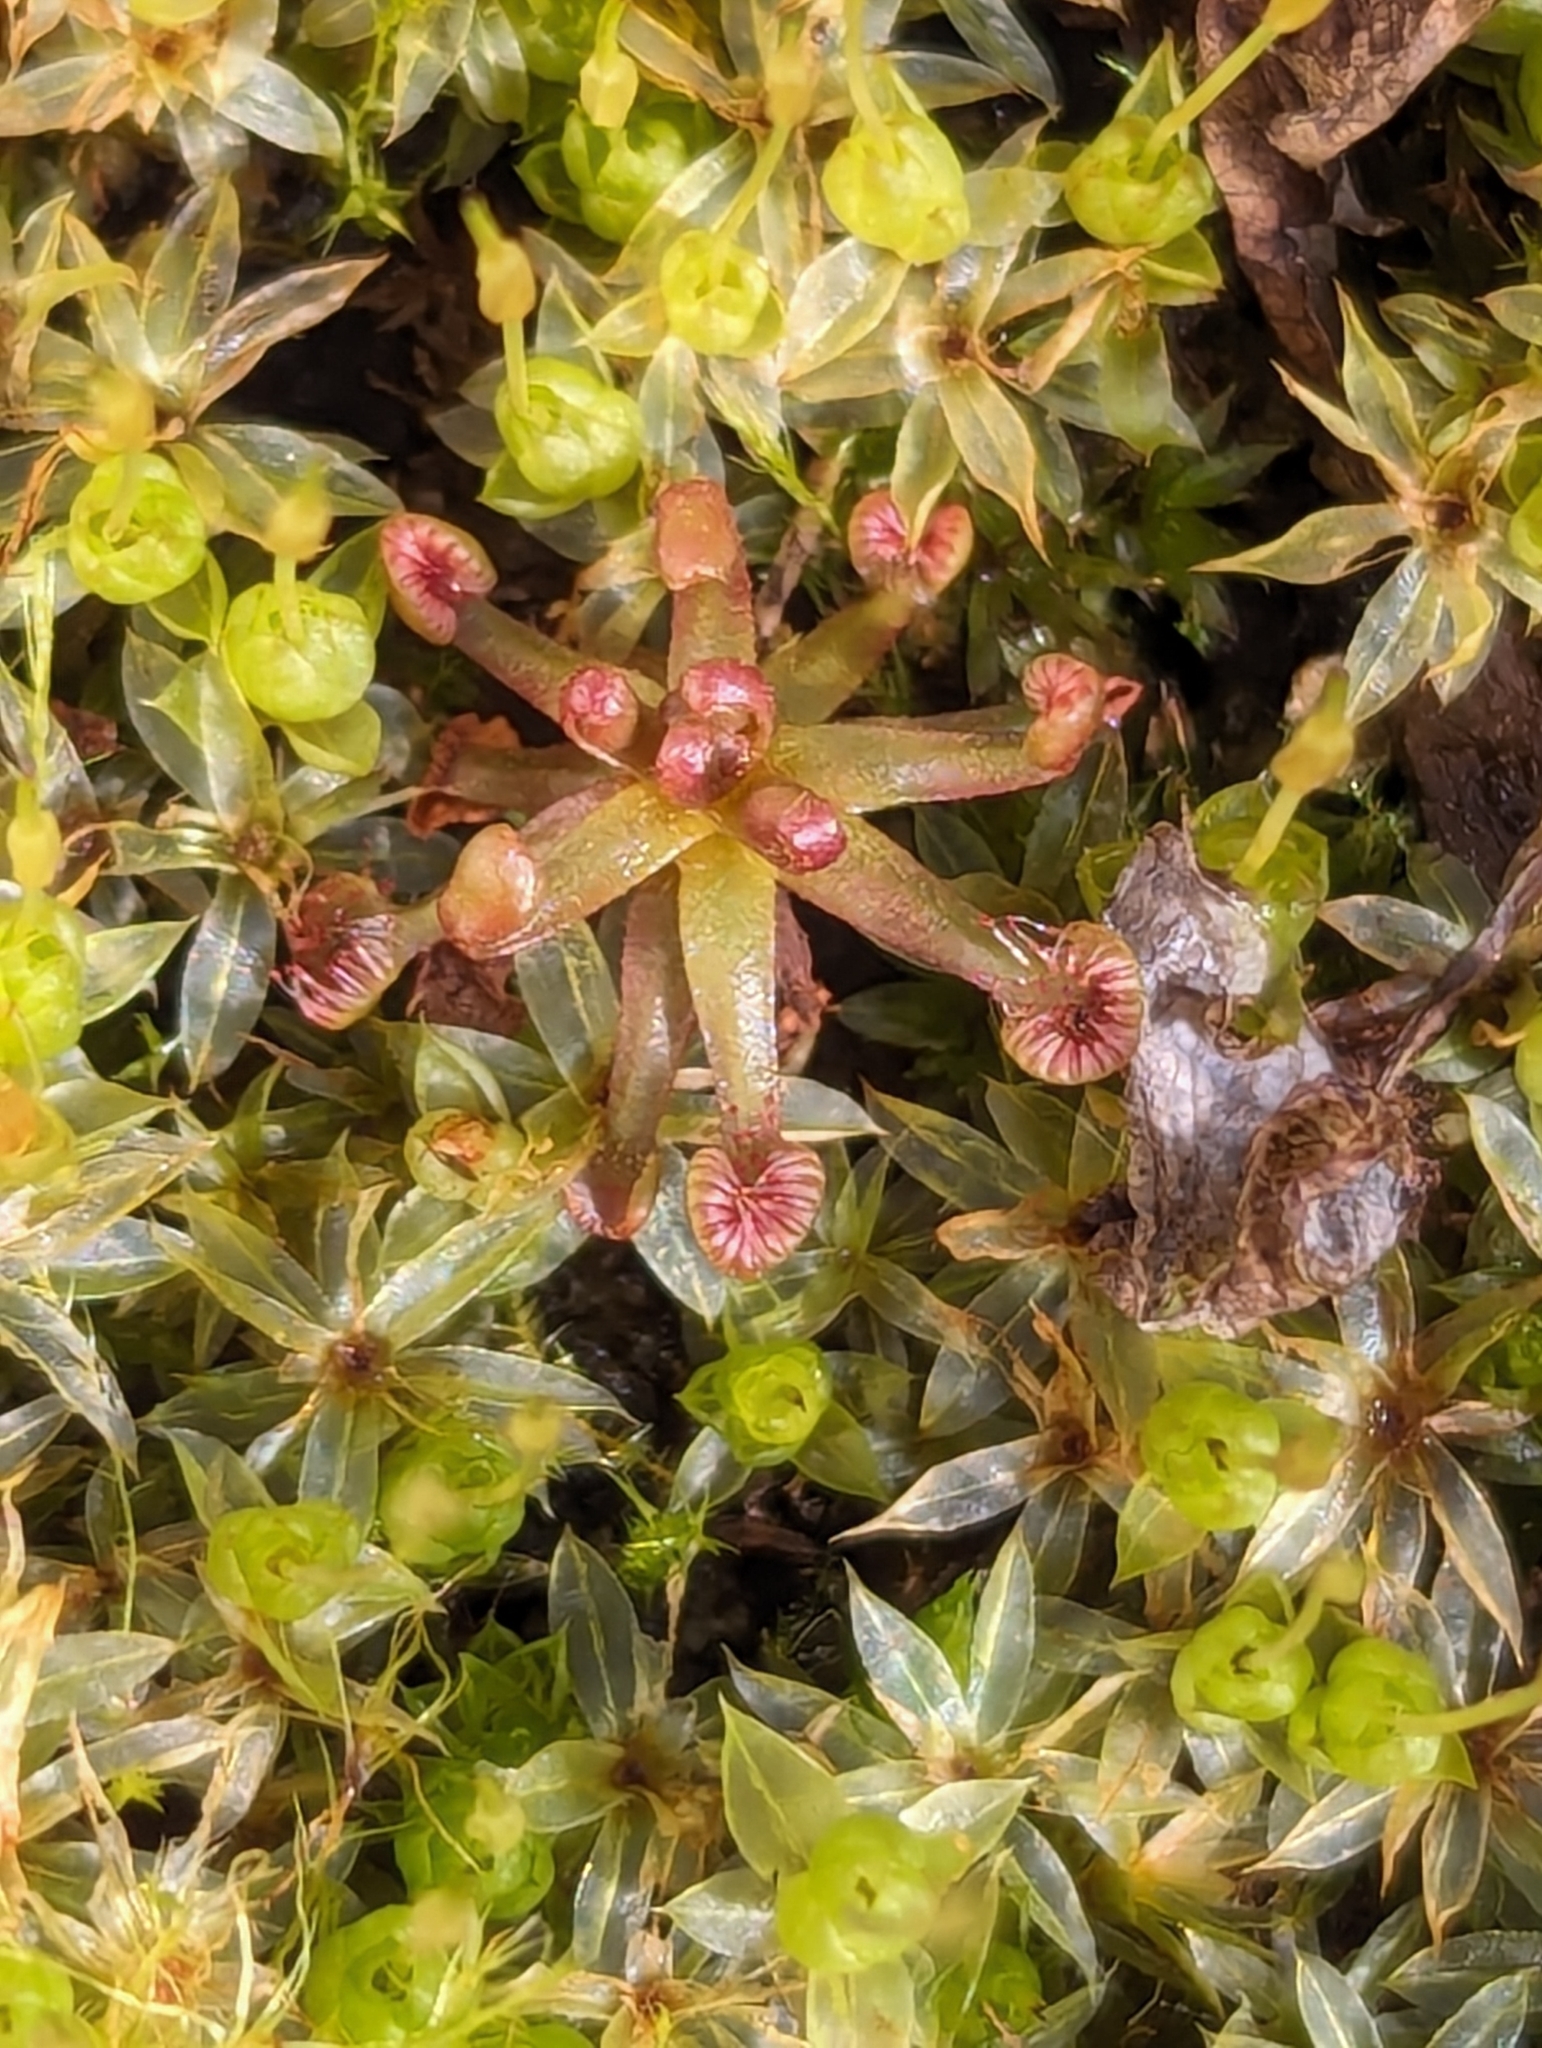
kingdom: Plantae
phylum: Tracheophyta
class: Magnoliopsida
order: Caryophyllales
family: Droseraceae
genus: Drosera
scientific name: Drosera rotundifolia
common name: Round-leaved sundew
